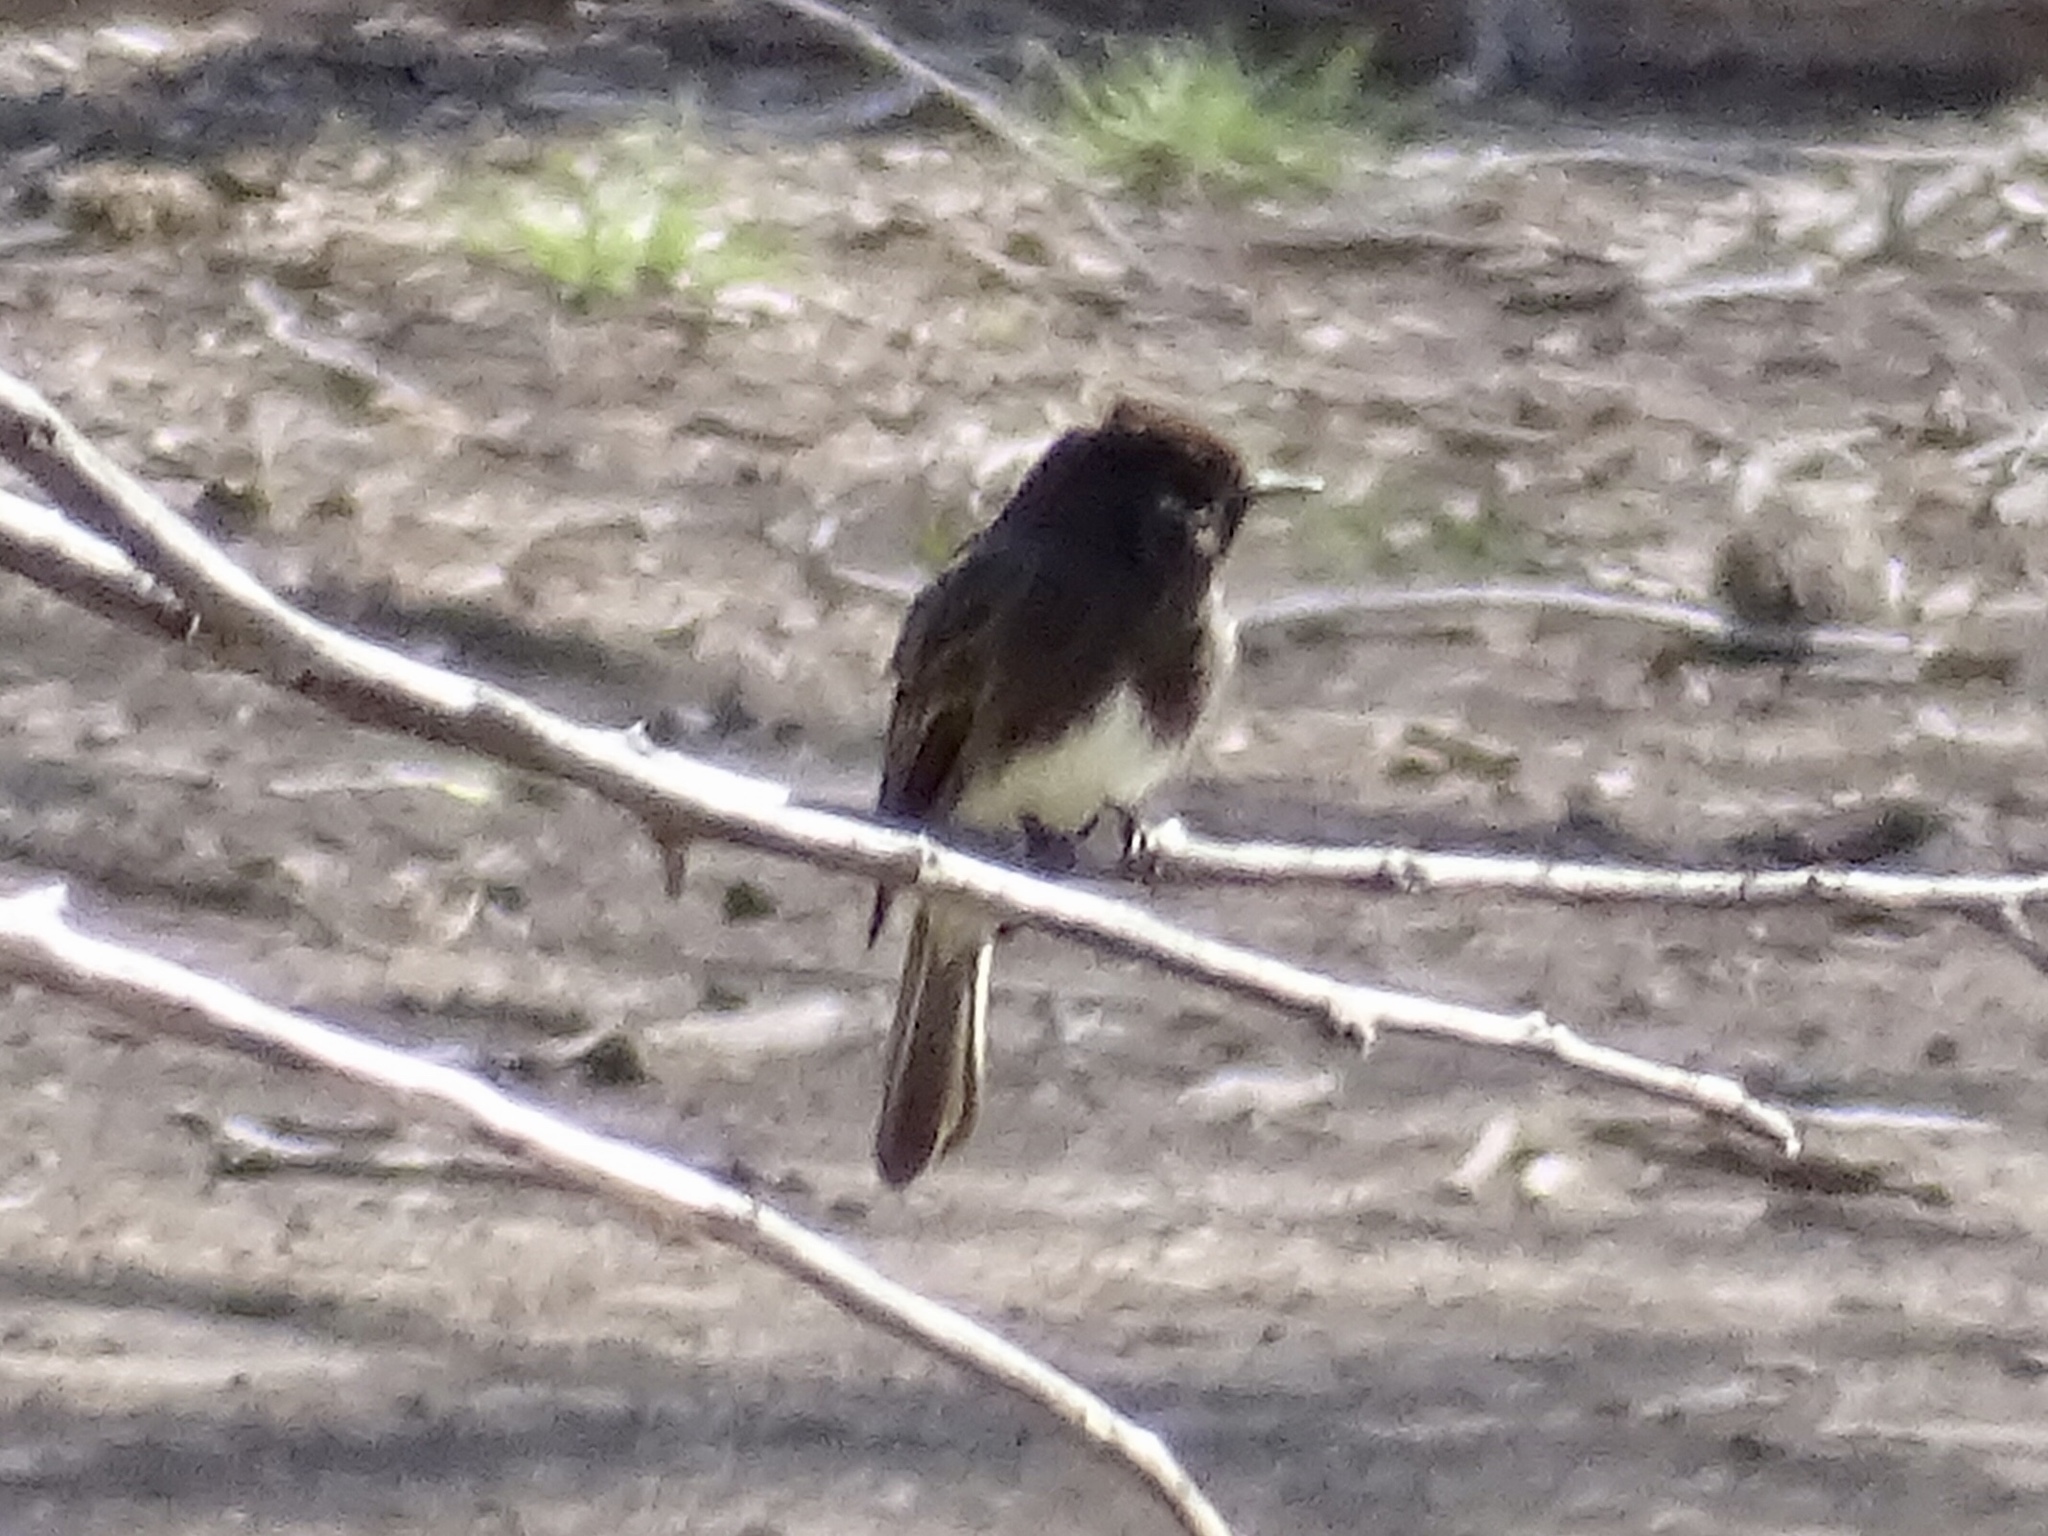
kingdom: Animalia
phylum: Chordata
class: Aves
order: Passeriformes
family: Tyrannidae
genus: Sayornis
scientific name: Sayornis nigricans
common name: Black phoebe
